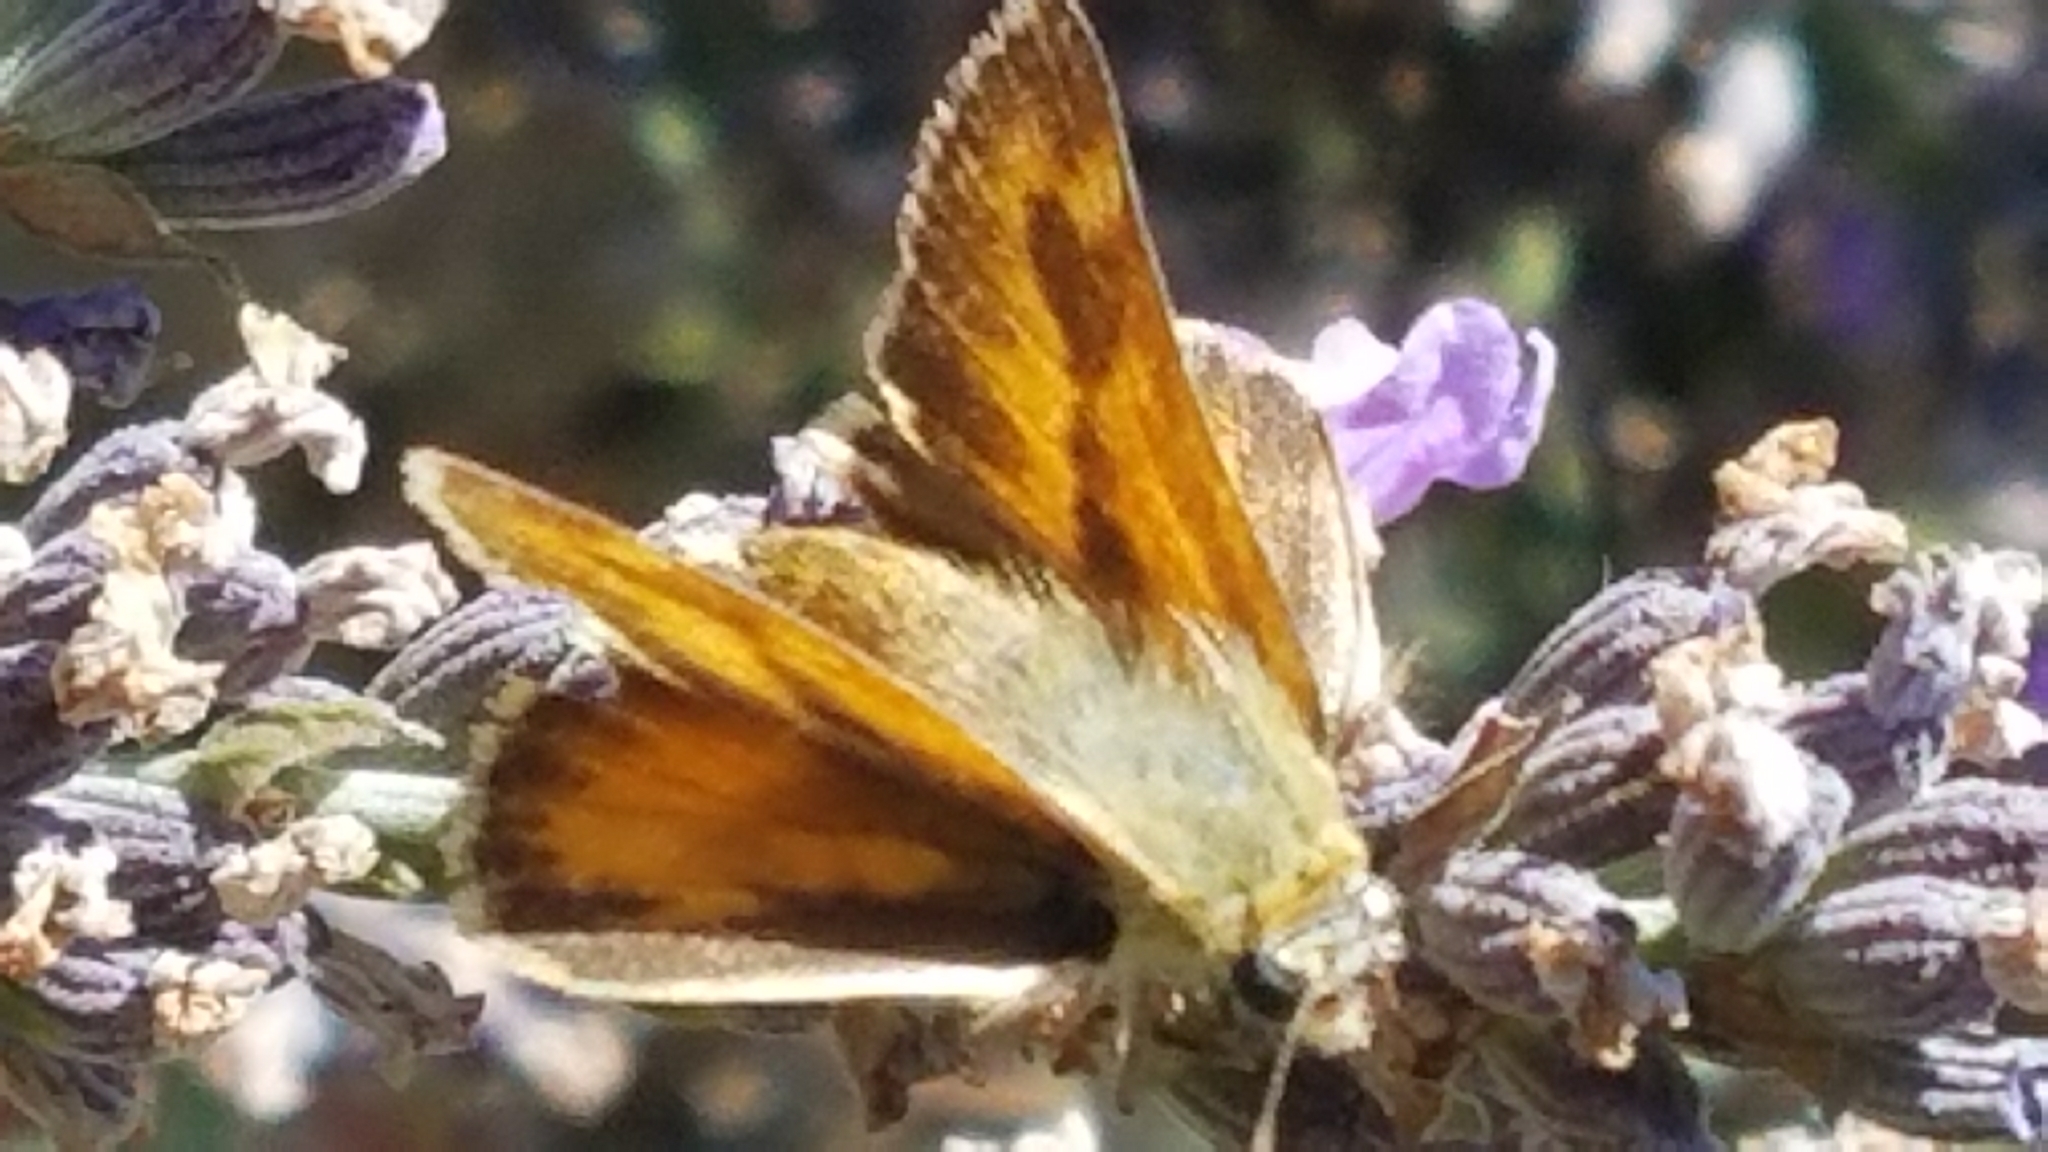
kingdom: Animalia
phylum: Arthropoda
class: Insecta
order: Lepidoptera
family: Hesperiidae
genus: Ochlodes
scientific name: Ochlodes sylvanoides
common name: Woodland skipper
